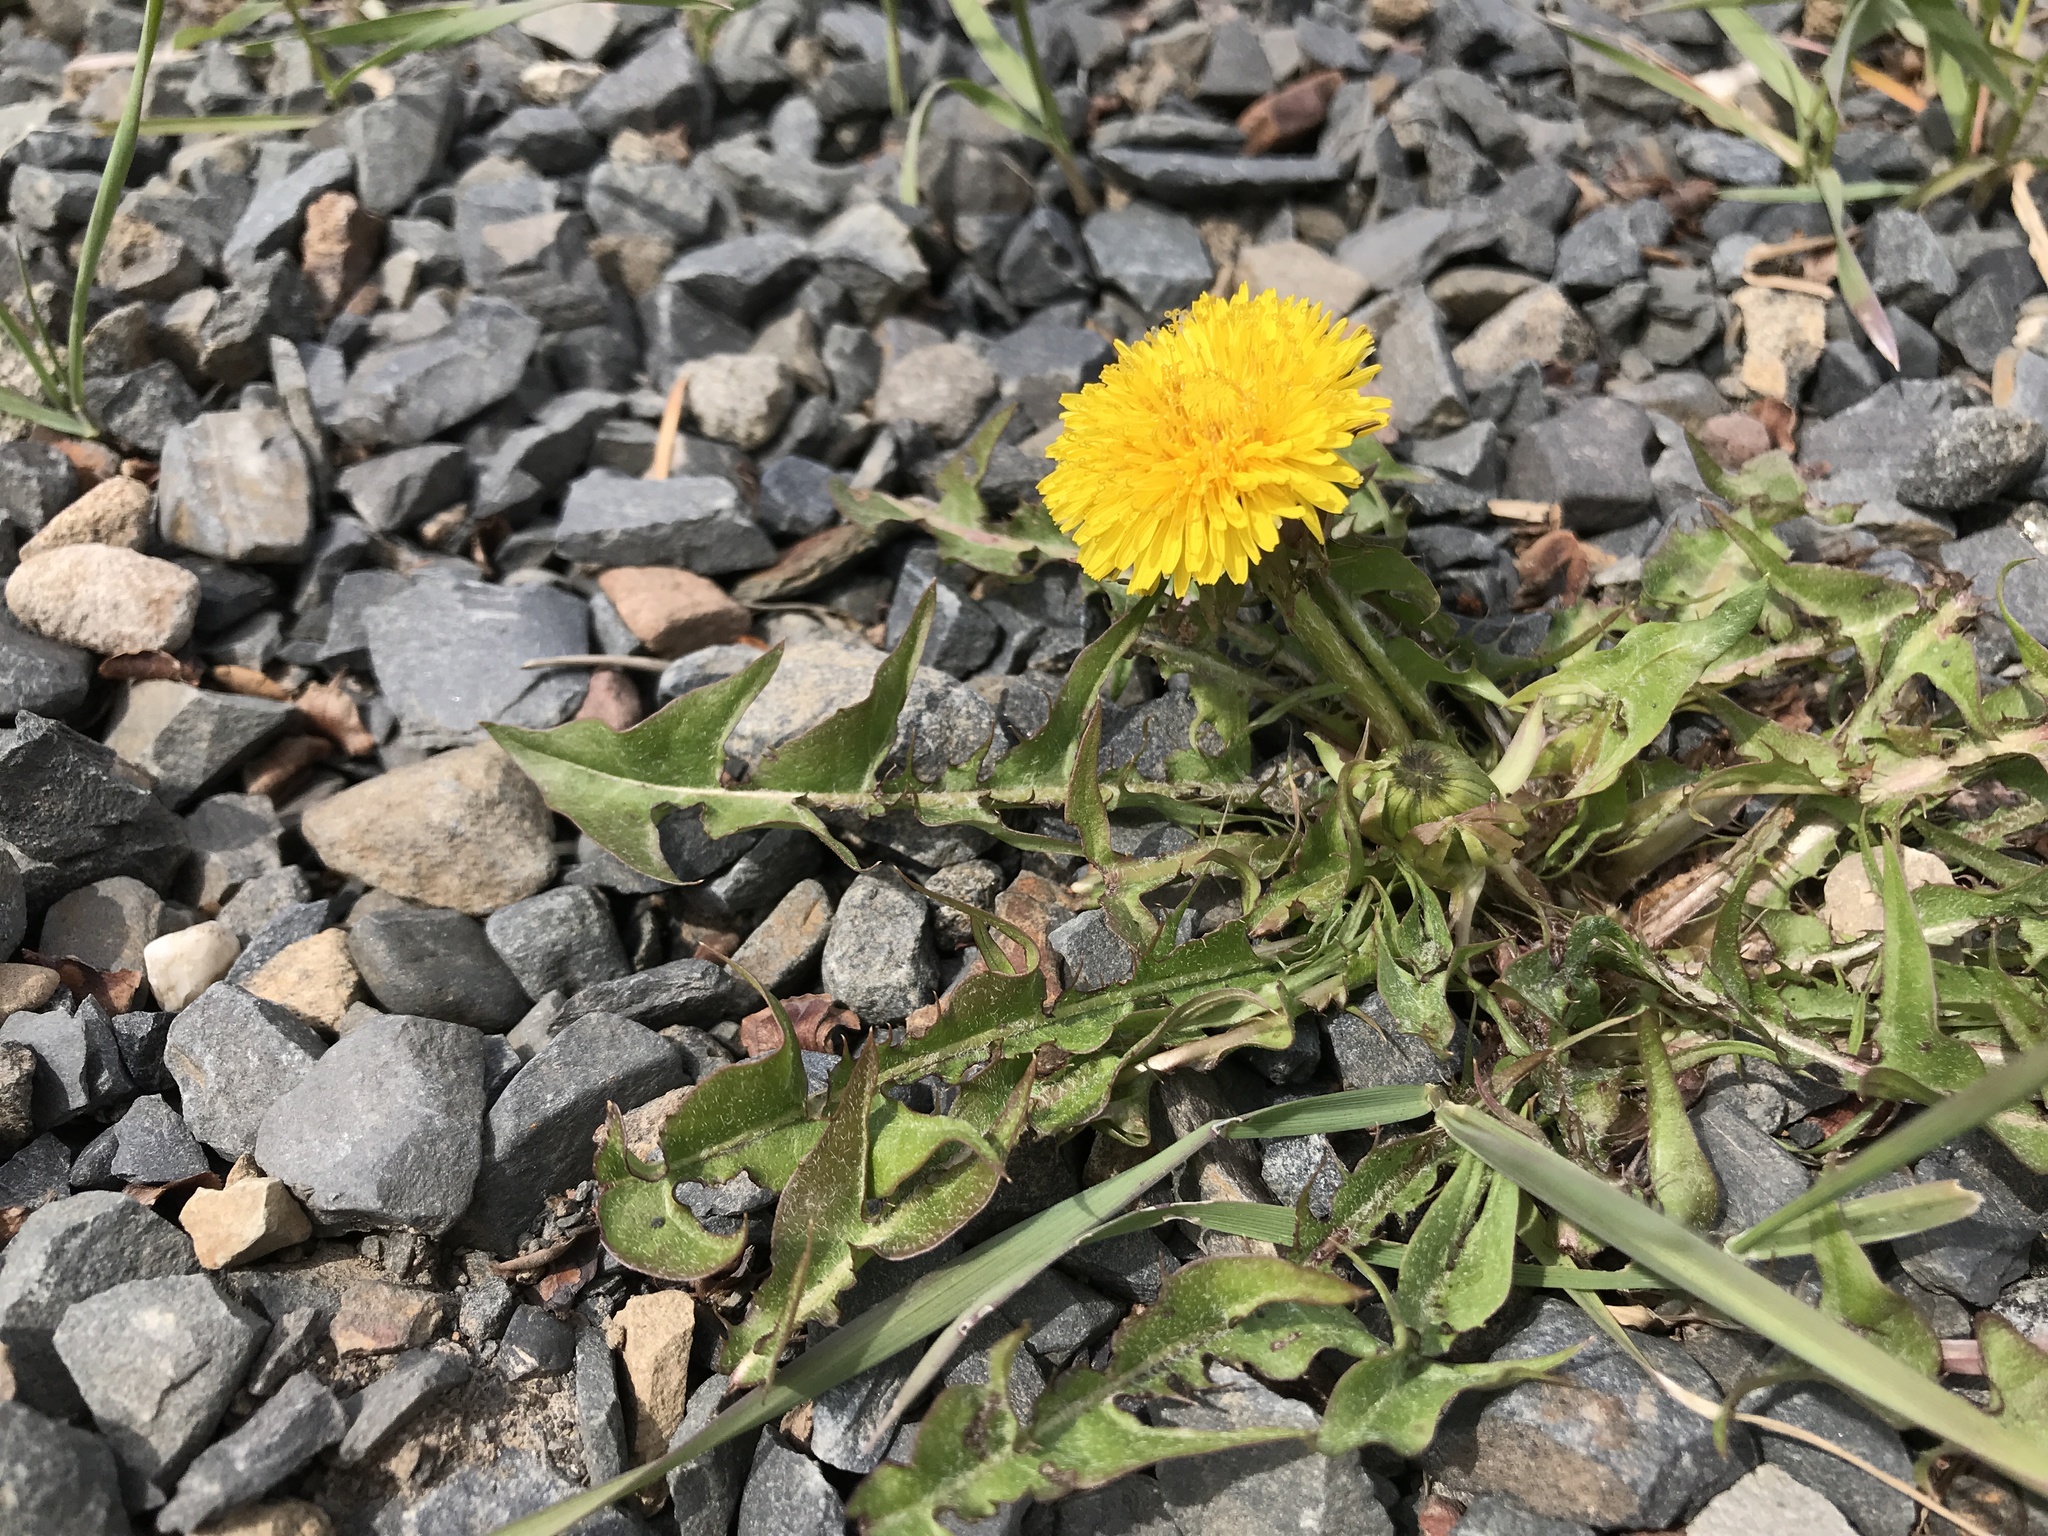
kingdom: Plantae
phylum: Tracheophyta
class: Magnoliopsida
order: Asterales
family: Asteraceae
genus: Taraxacum
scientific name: Taraxacum officinale
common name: Common dandelion
